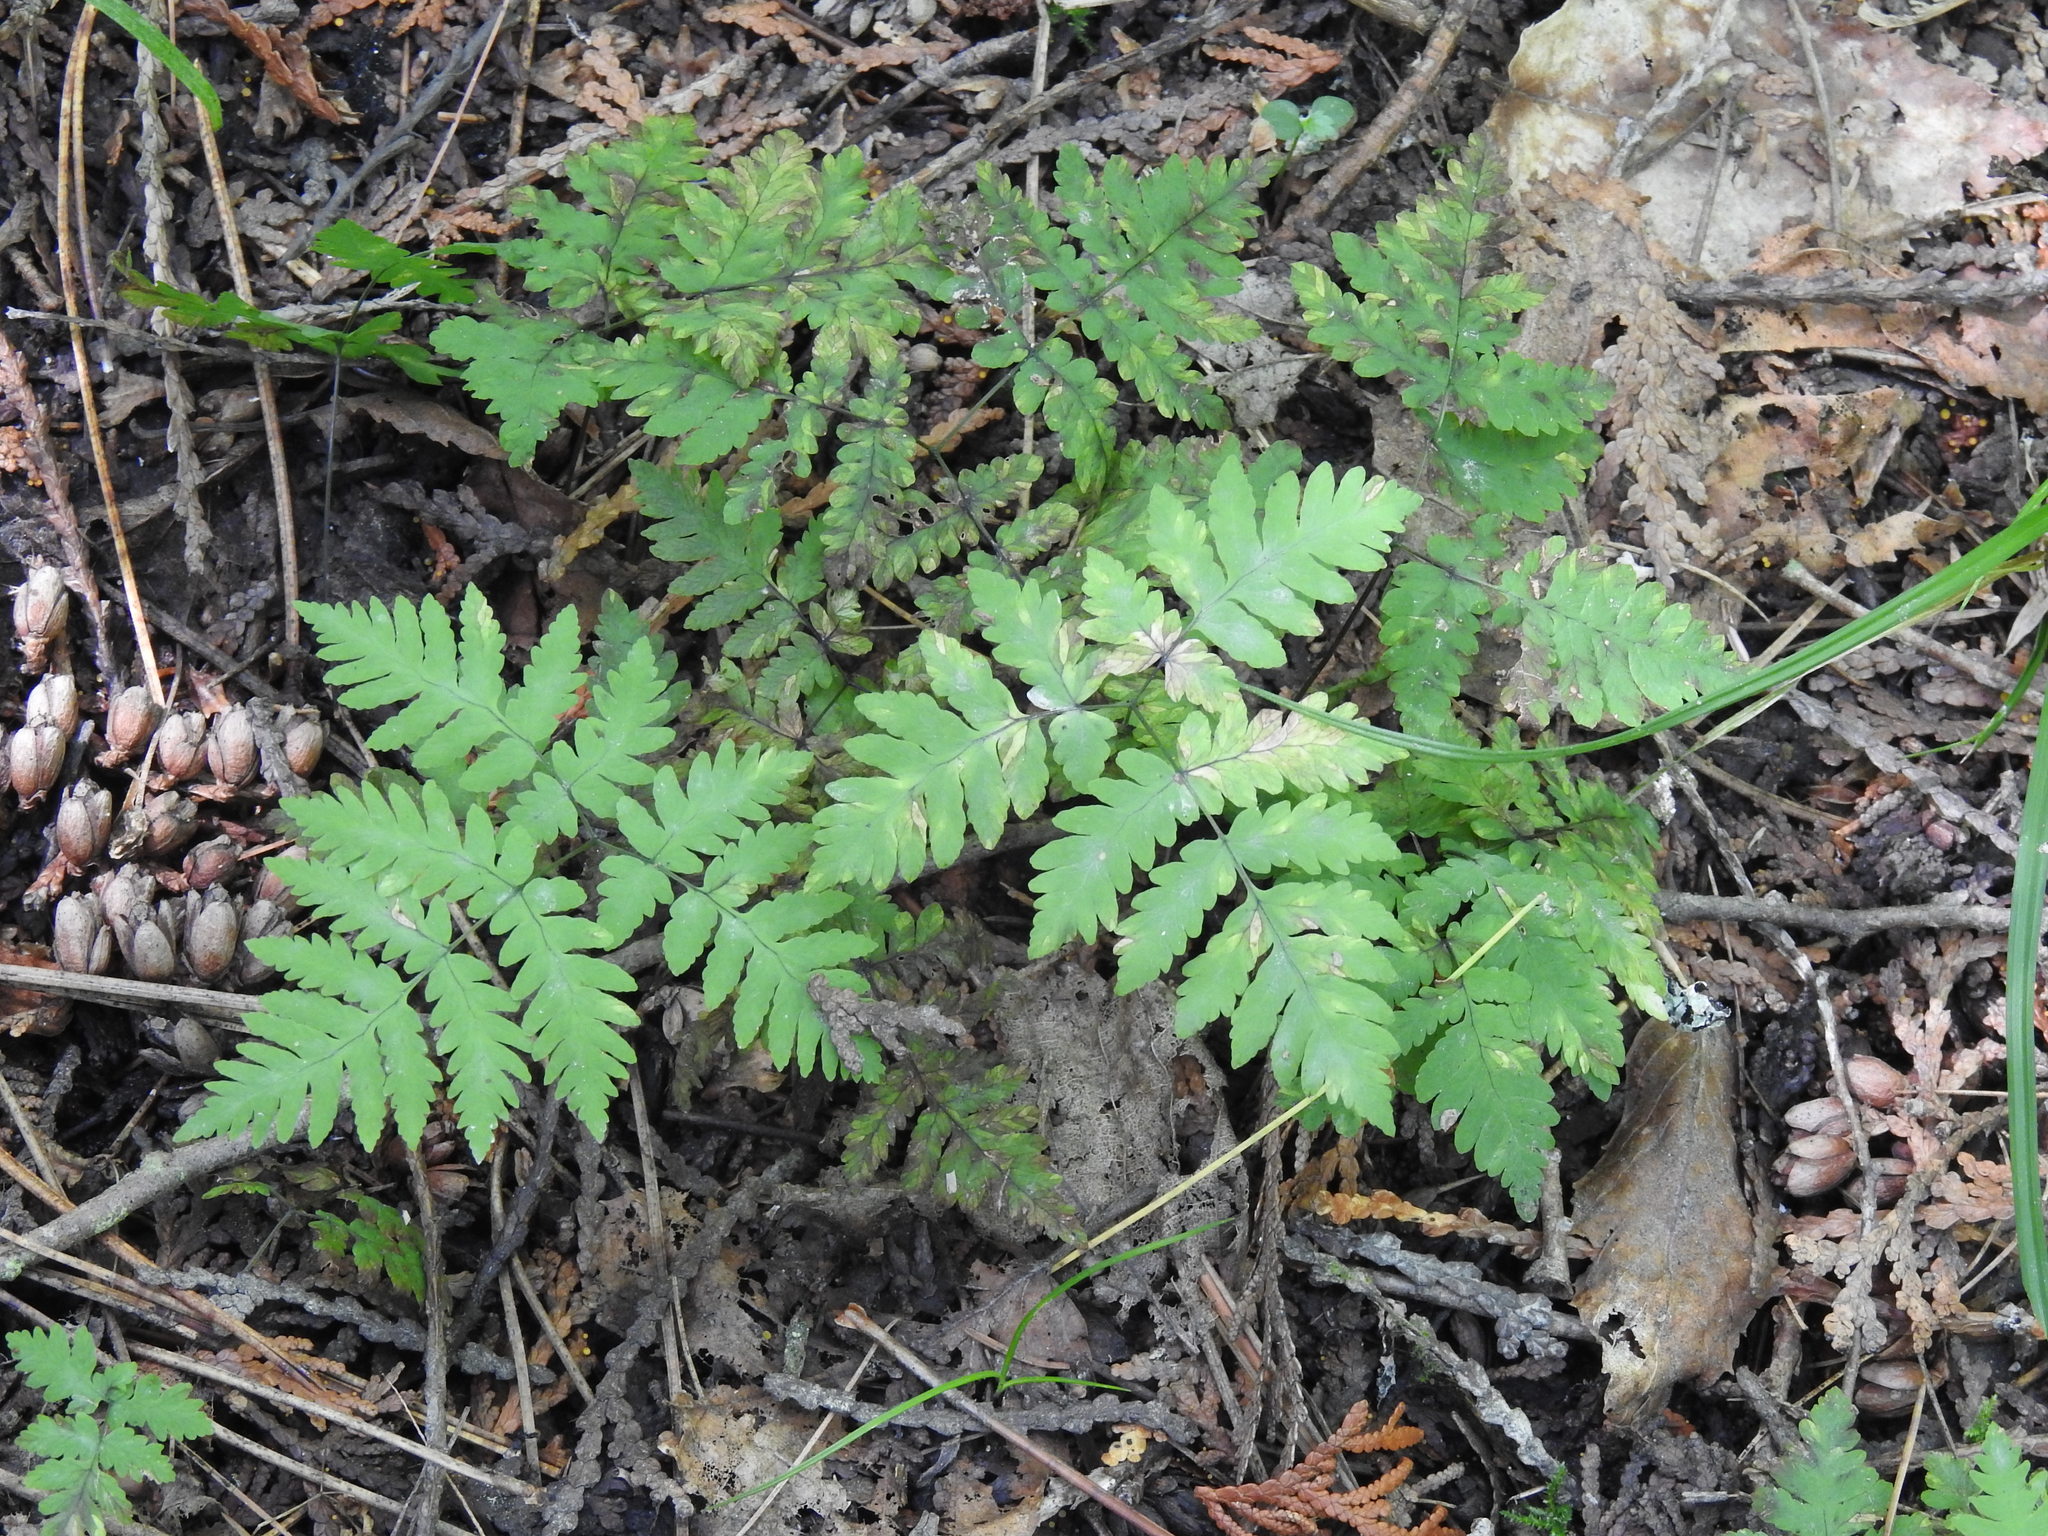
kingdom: Plantae
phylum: Tracheophyta
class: Polypodiopsida
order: Polypodiales
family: Cystopteridaceae
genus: Gymnocarpium
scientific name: Gymnocarpium dryopteris
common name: Oak fern
